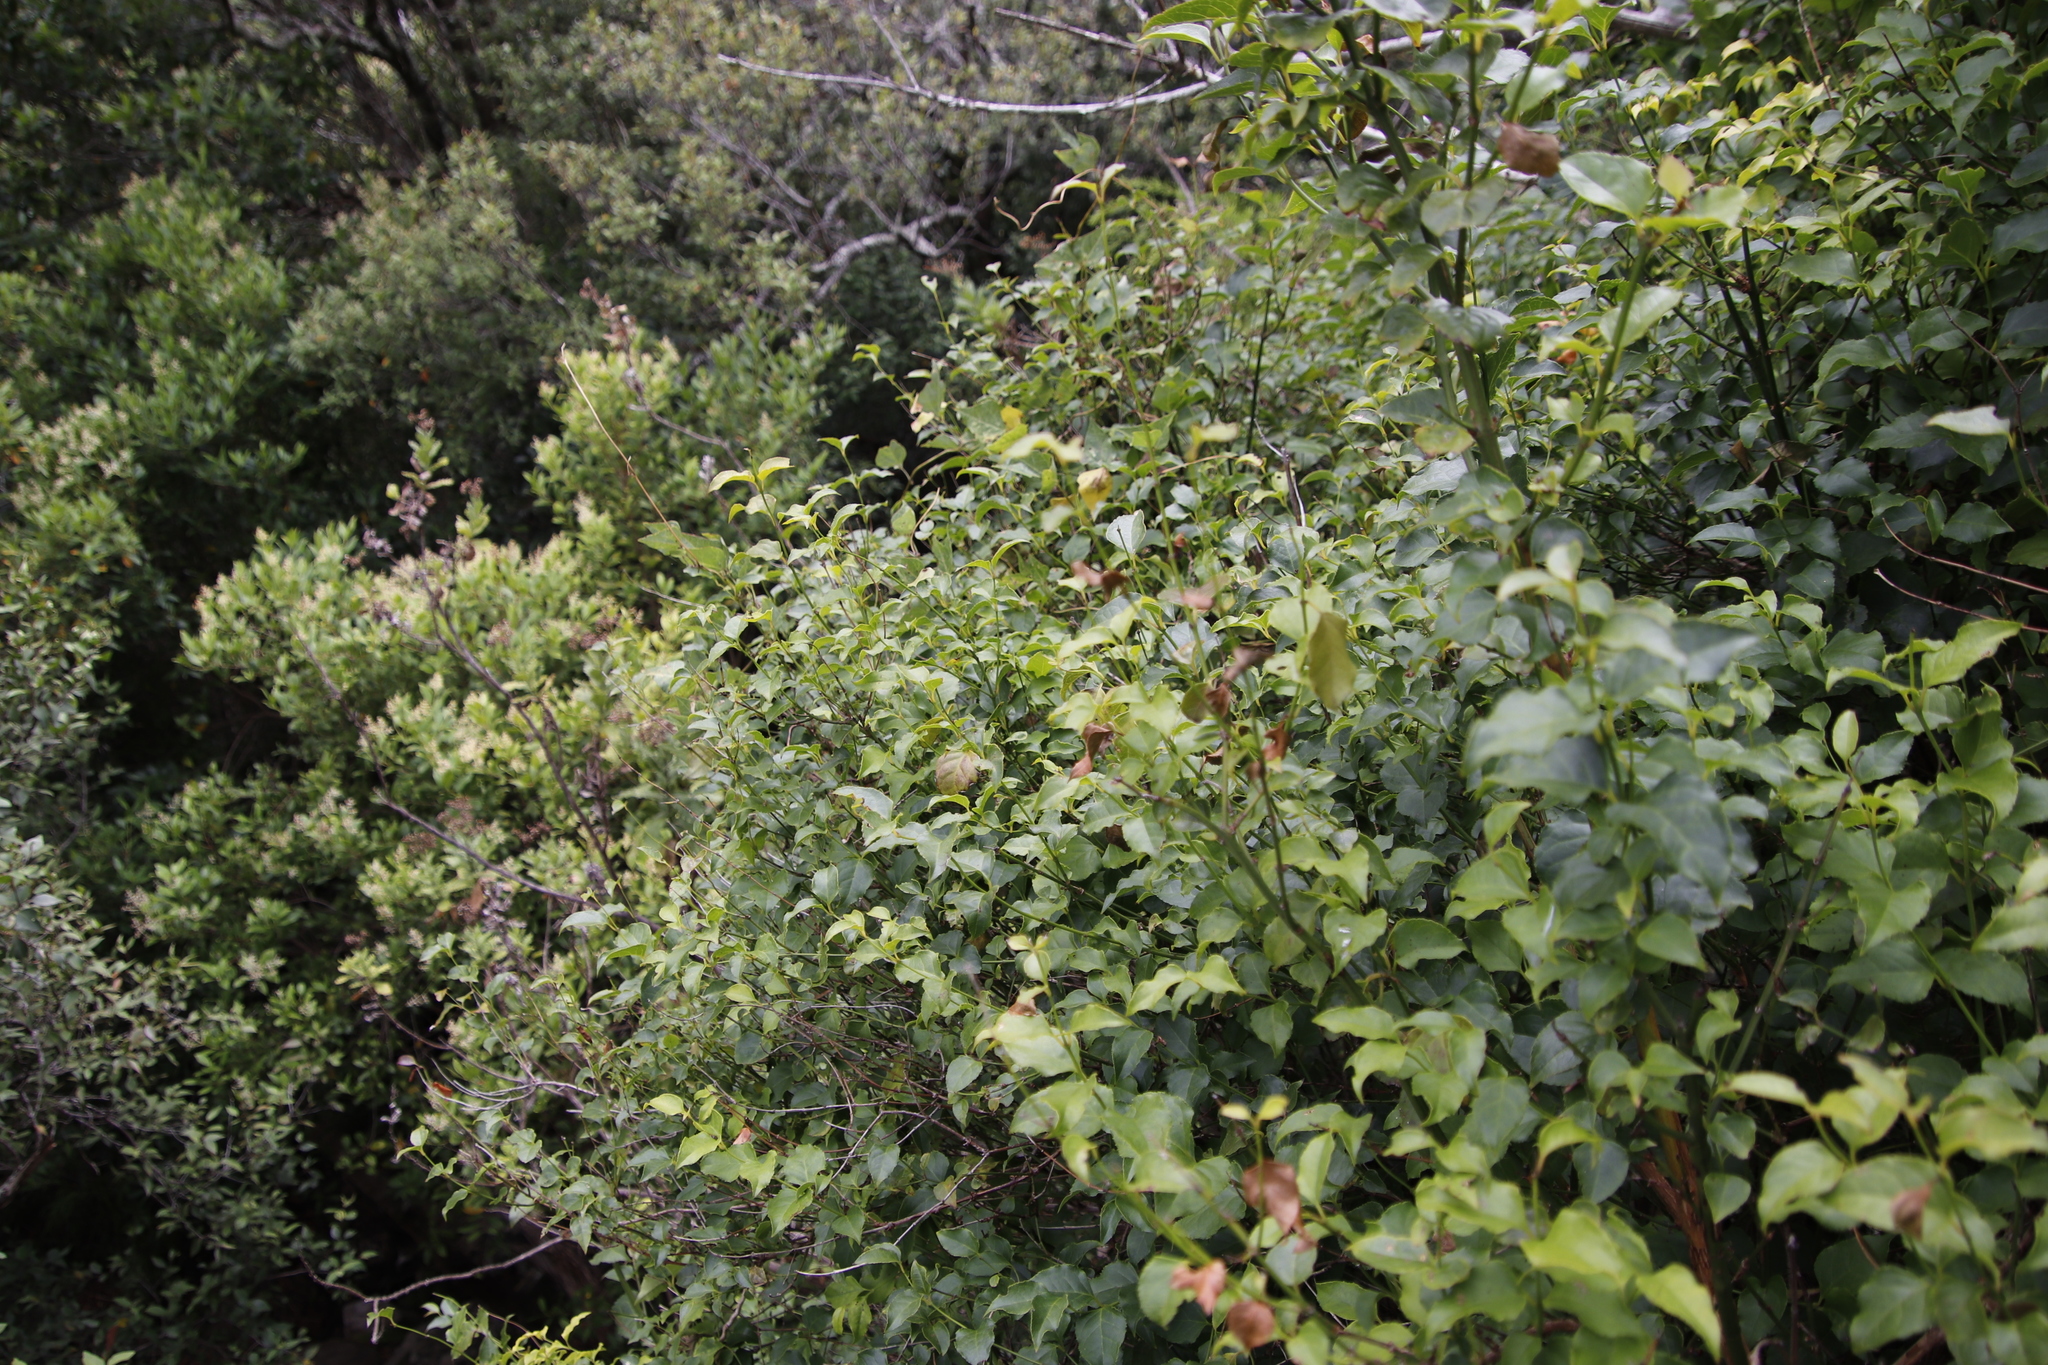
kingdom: Plantae
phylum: Tracheophyta
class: Magnoliopsida
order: Lamiales
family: Stilbaceae
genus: Halleria
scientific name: Halleria lucida
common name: Tree fuschia
